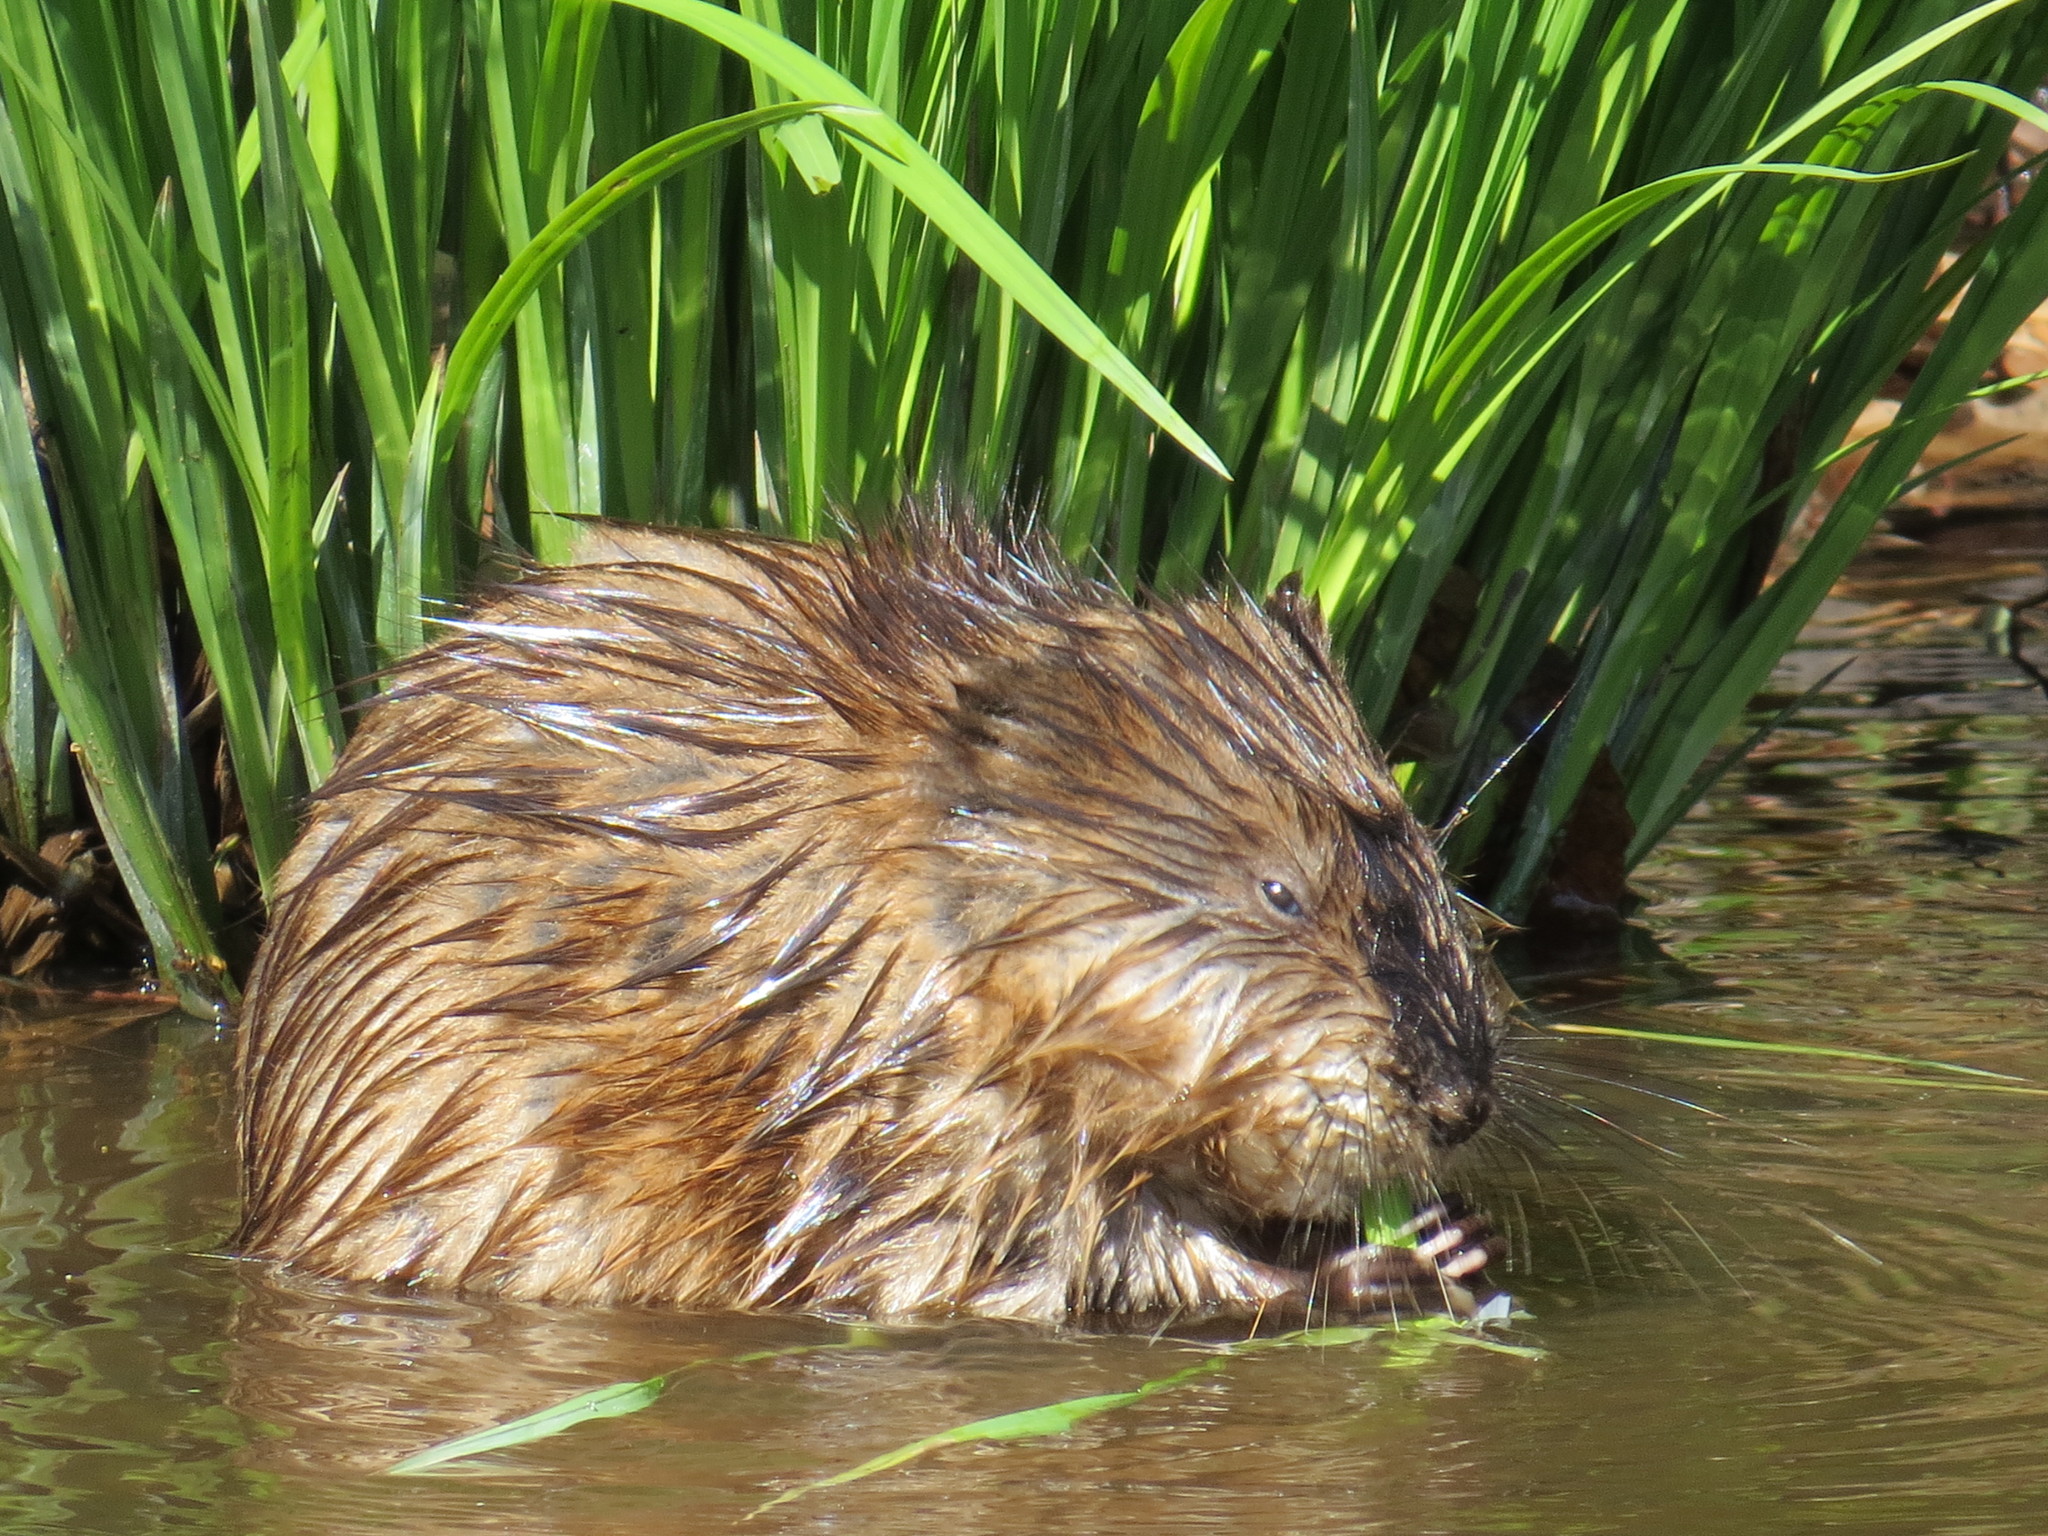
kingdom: Animalia
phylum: Chordata
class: Mammalia
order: Rodentia
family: Cricetidae
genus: Ondatra
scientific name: Ondatra zibethicus
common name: Muskrat
